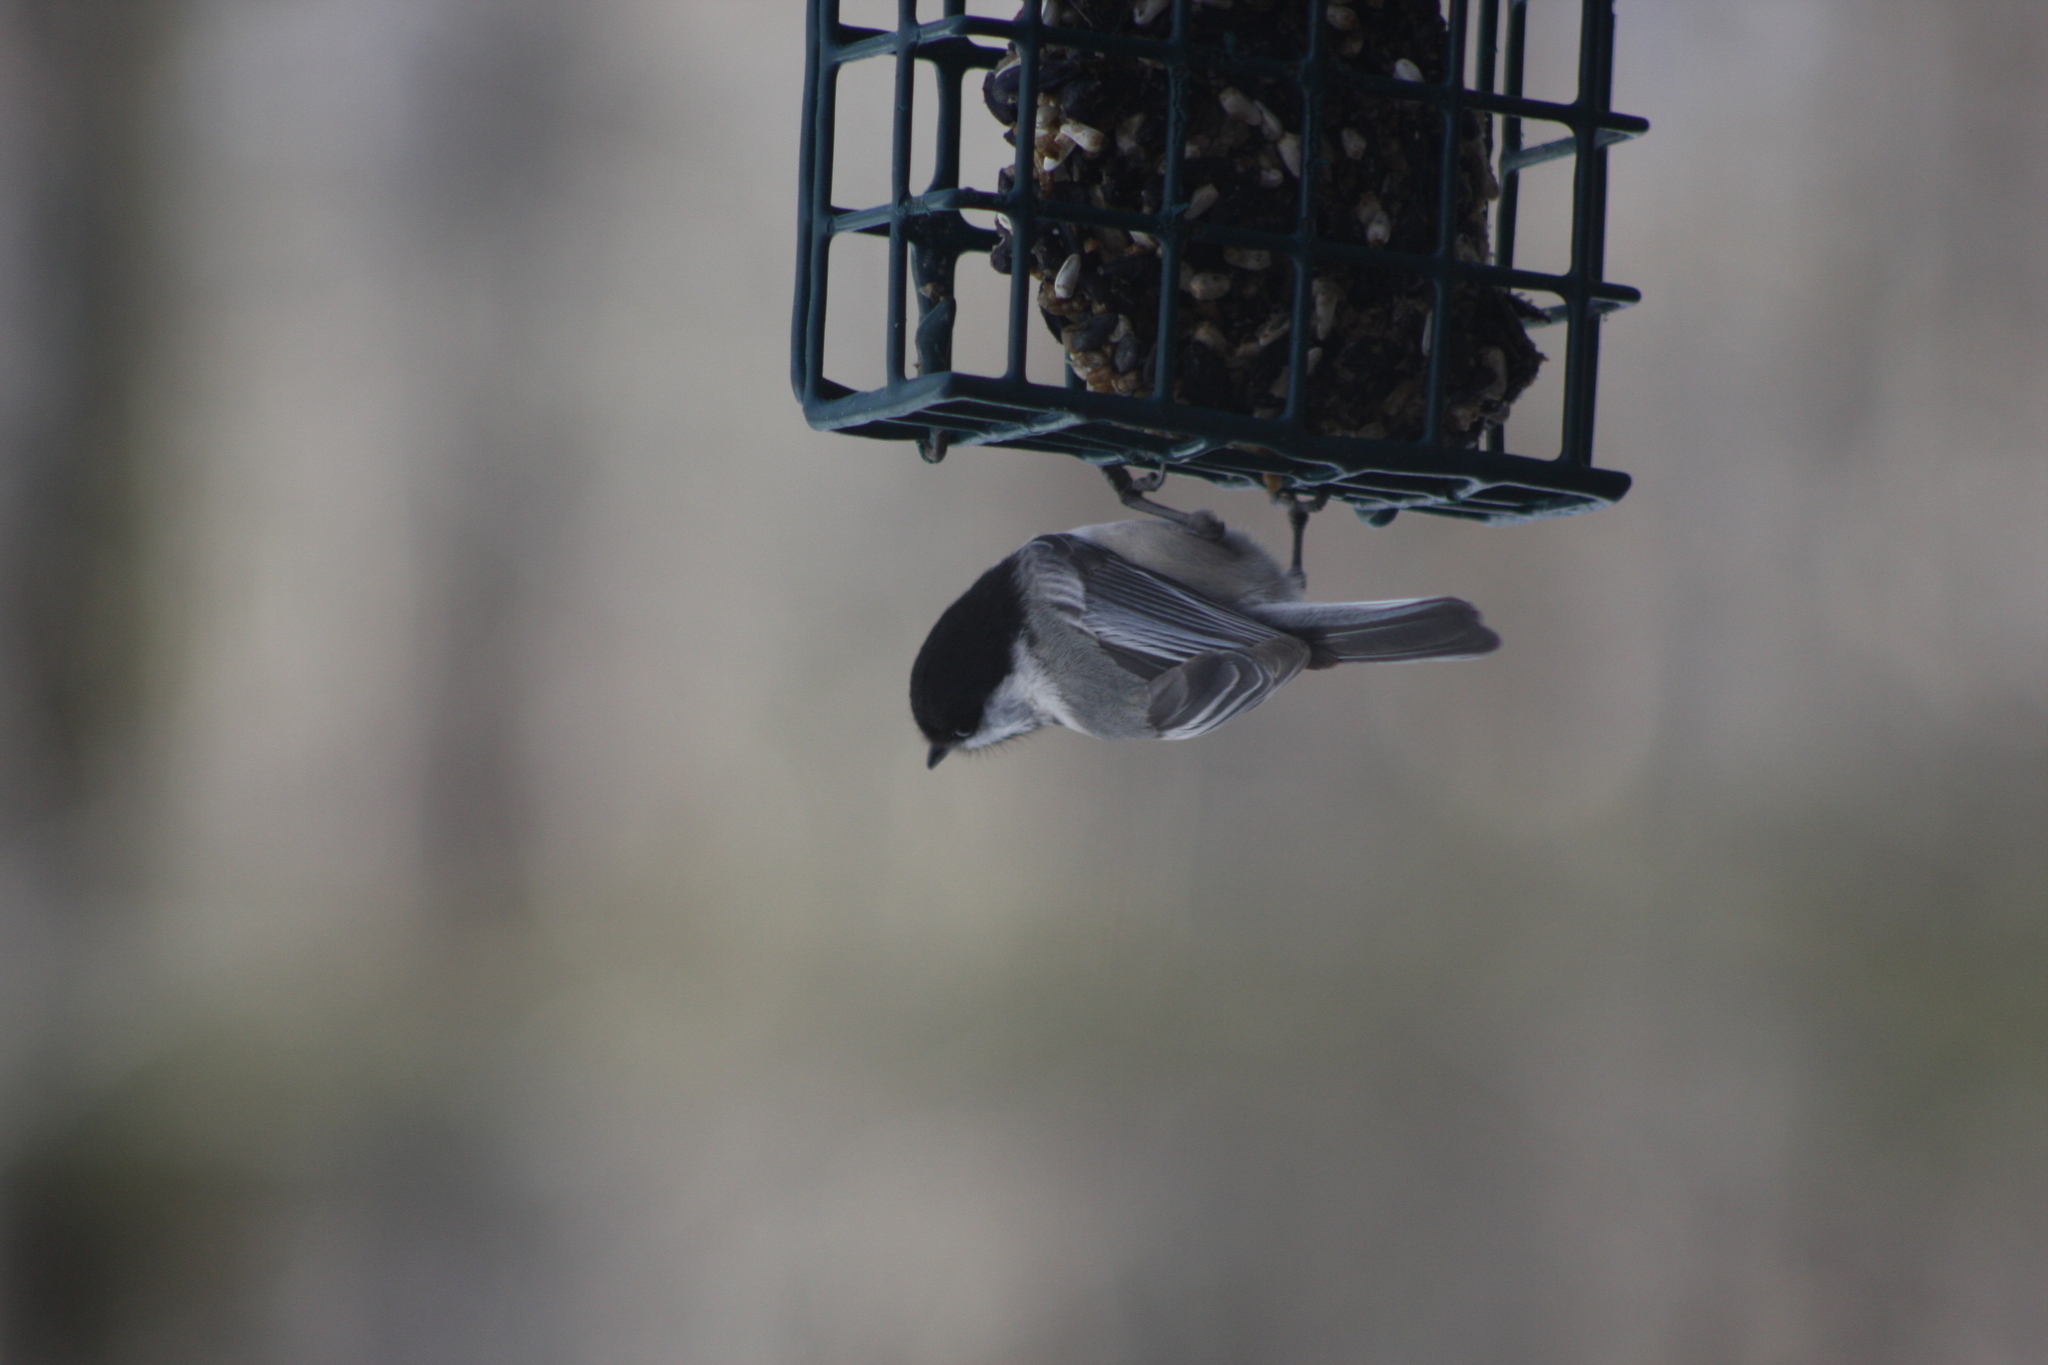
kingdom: Animalia
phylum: Chordata
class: Aves
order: Passeriformes
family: Paridae
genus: Poecile
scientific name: Poecile atricapillus
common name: Black-capped chickadee
